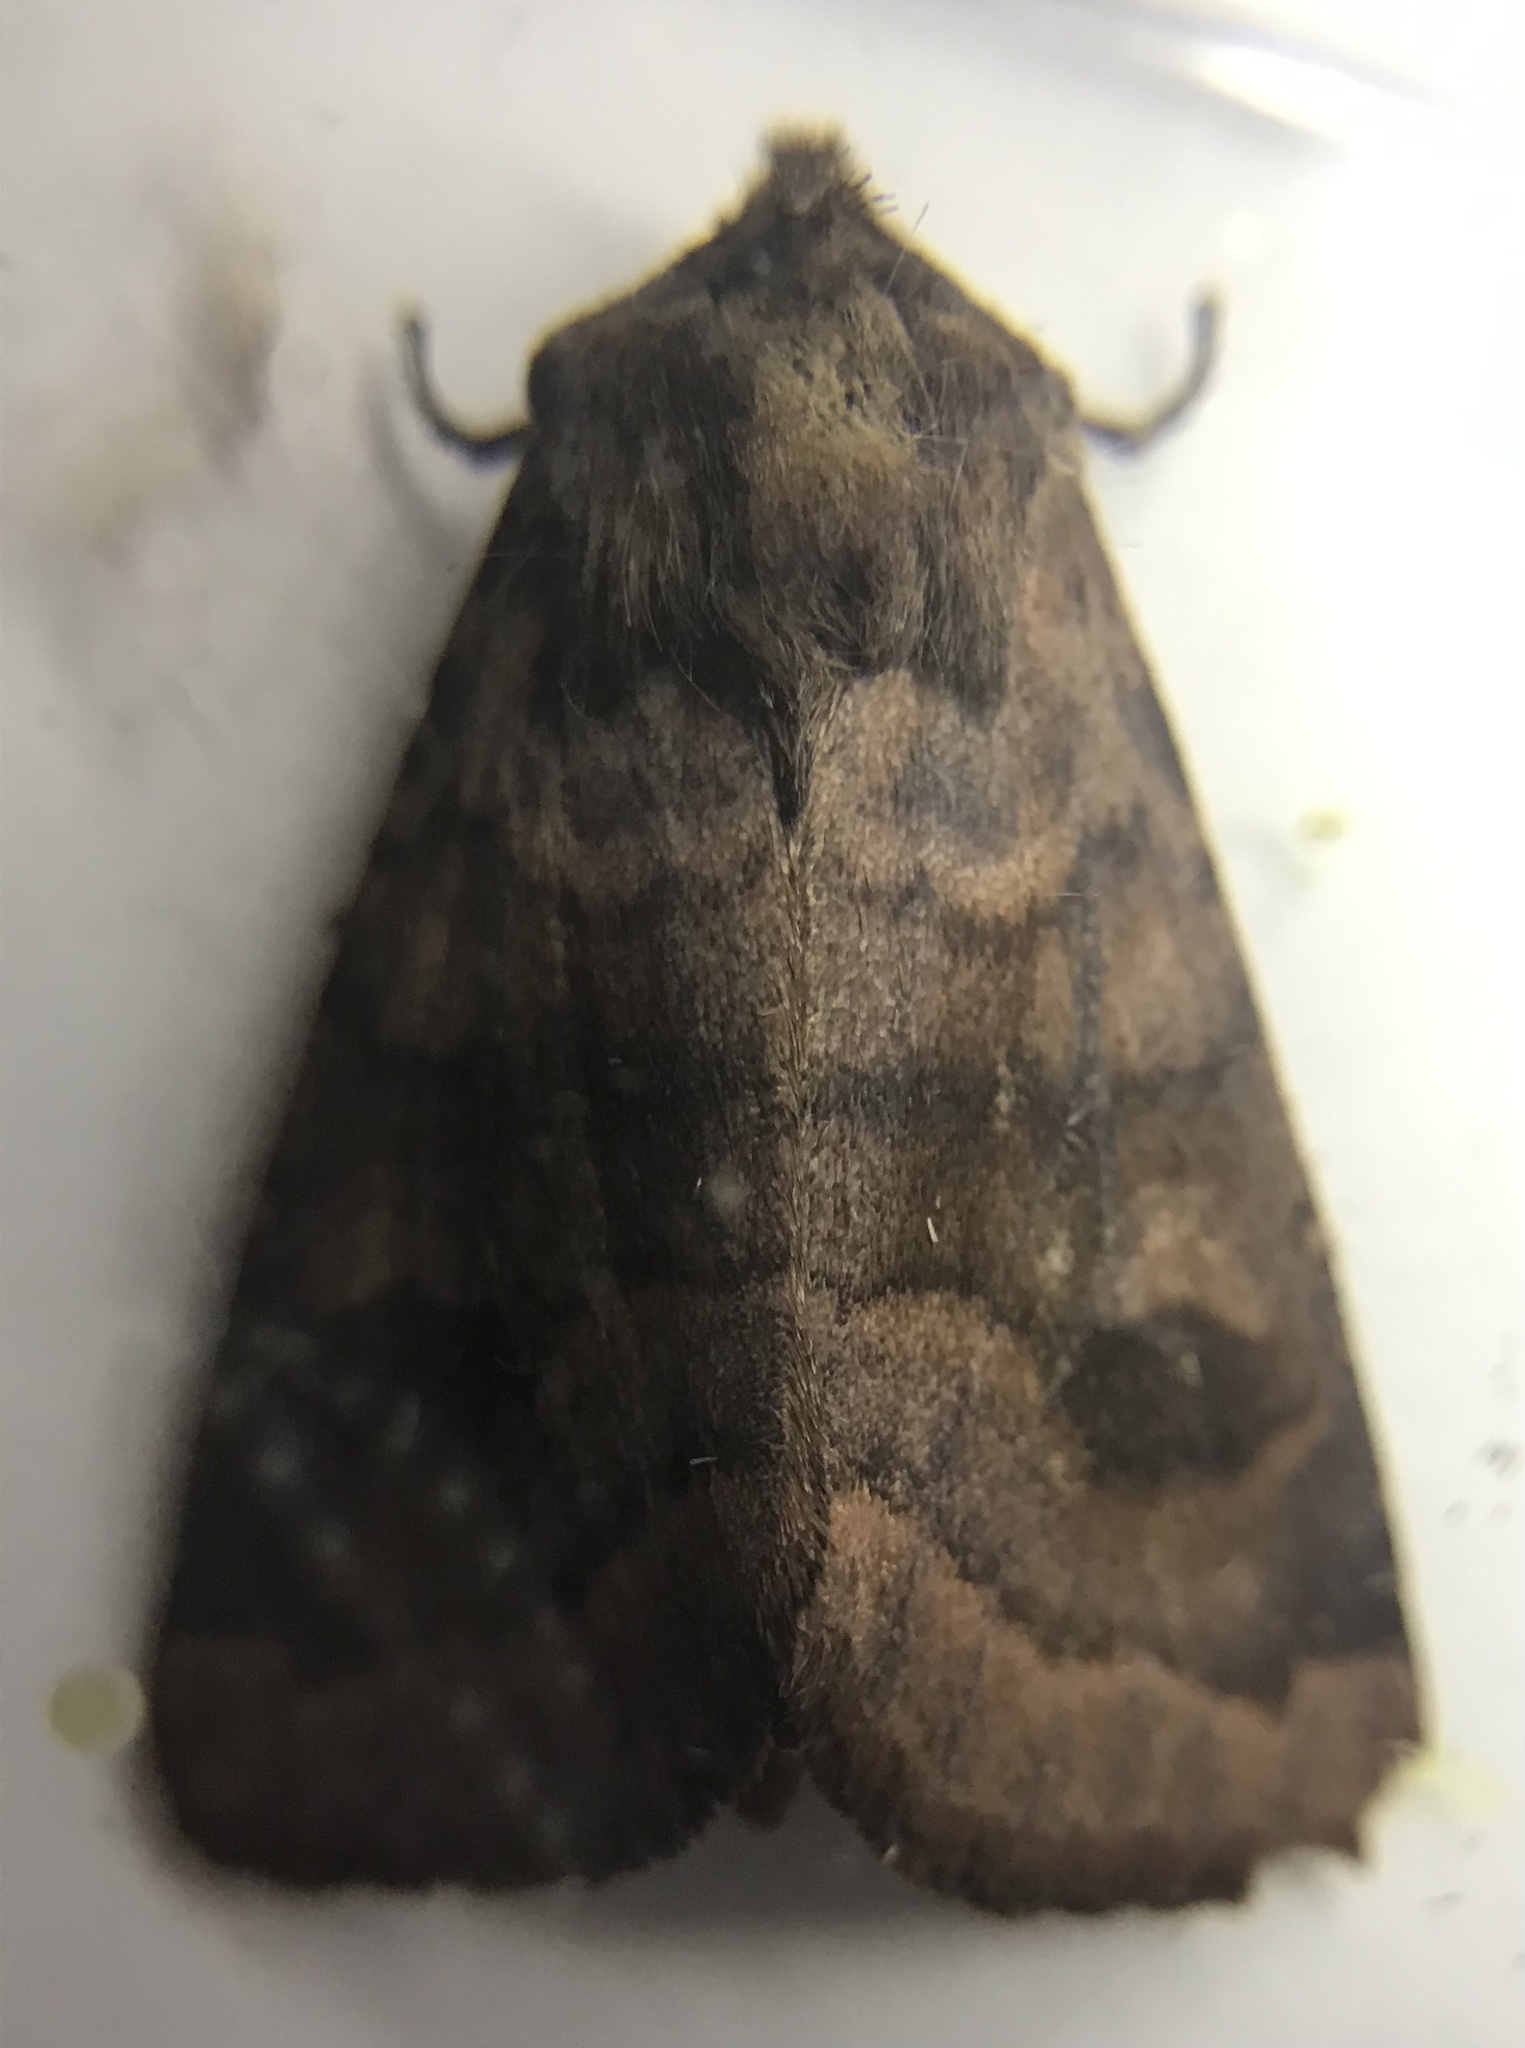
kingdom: Animalia
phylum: Arthropoda
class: Insecta
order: Lepidoptera
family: Noctuidae
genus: Nephelodes
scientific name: Nephelodes minians
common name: Bronzed cutworm
